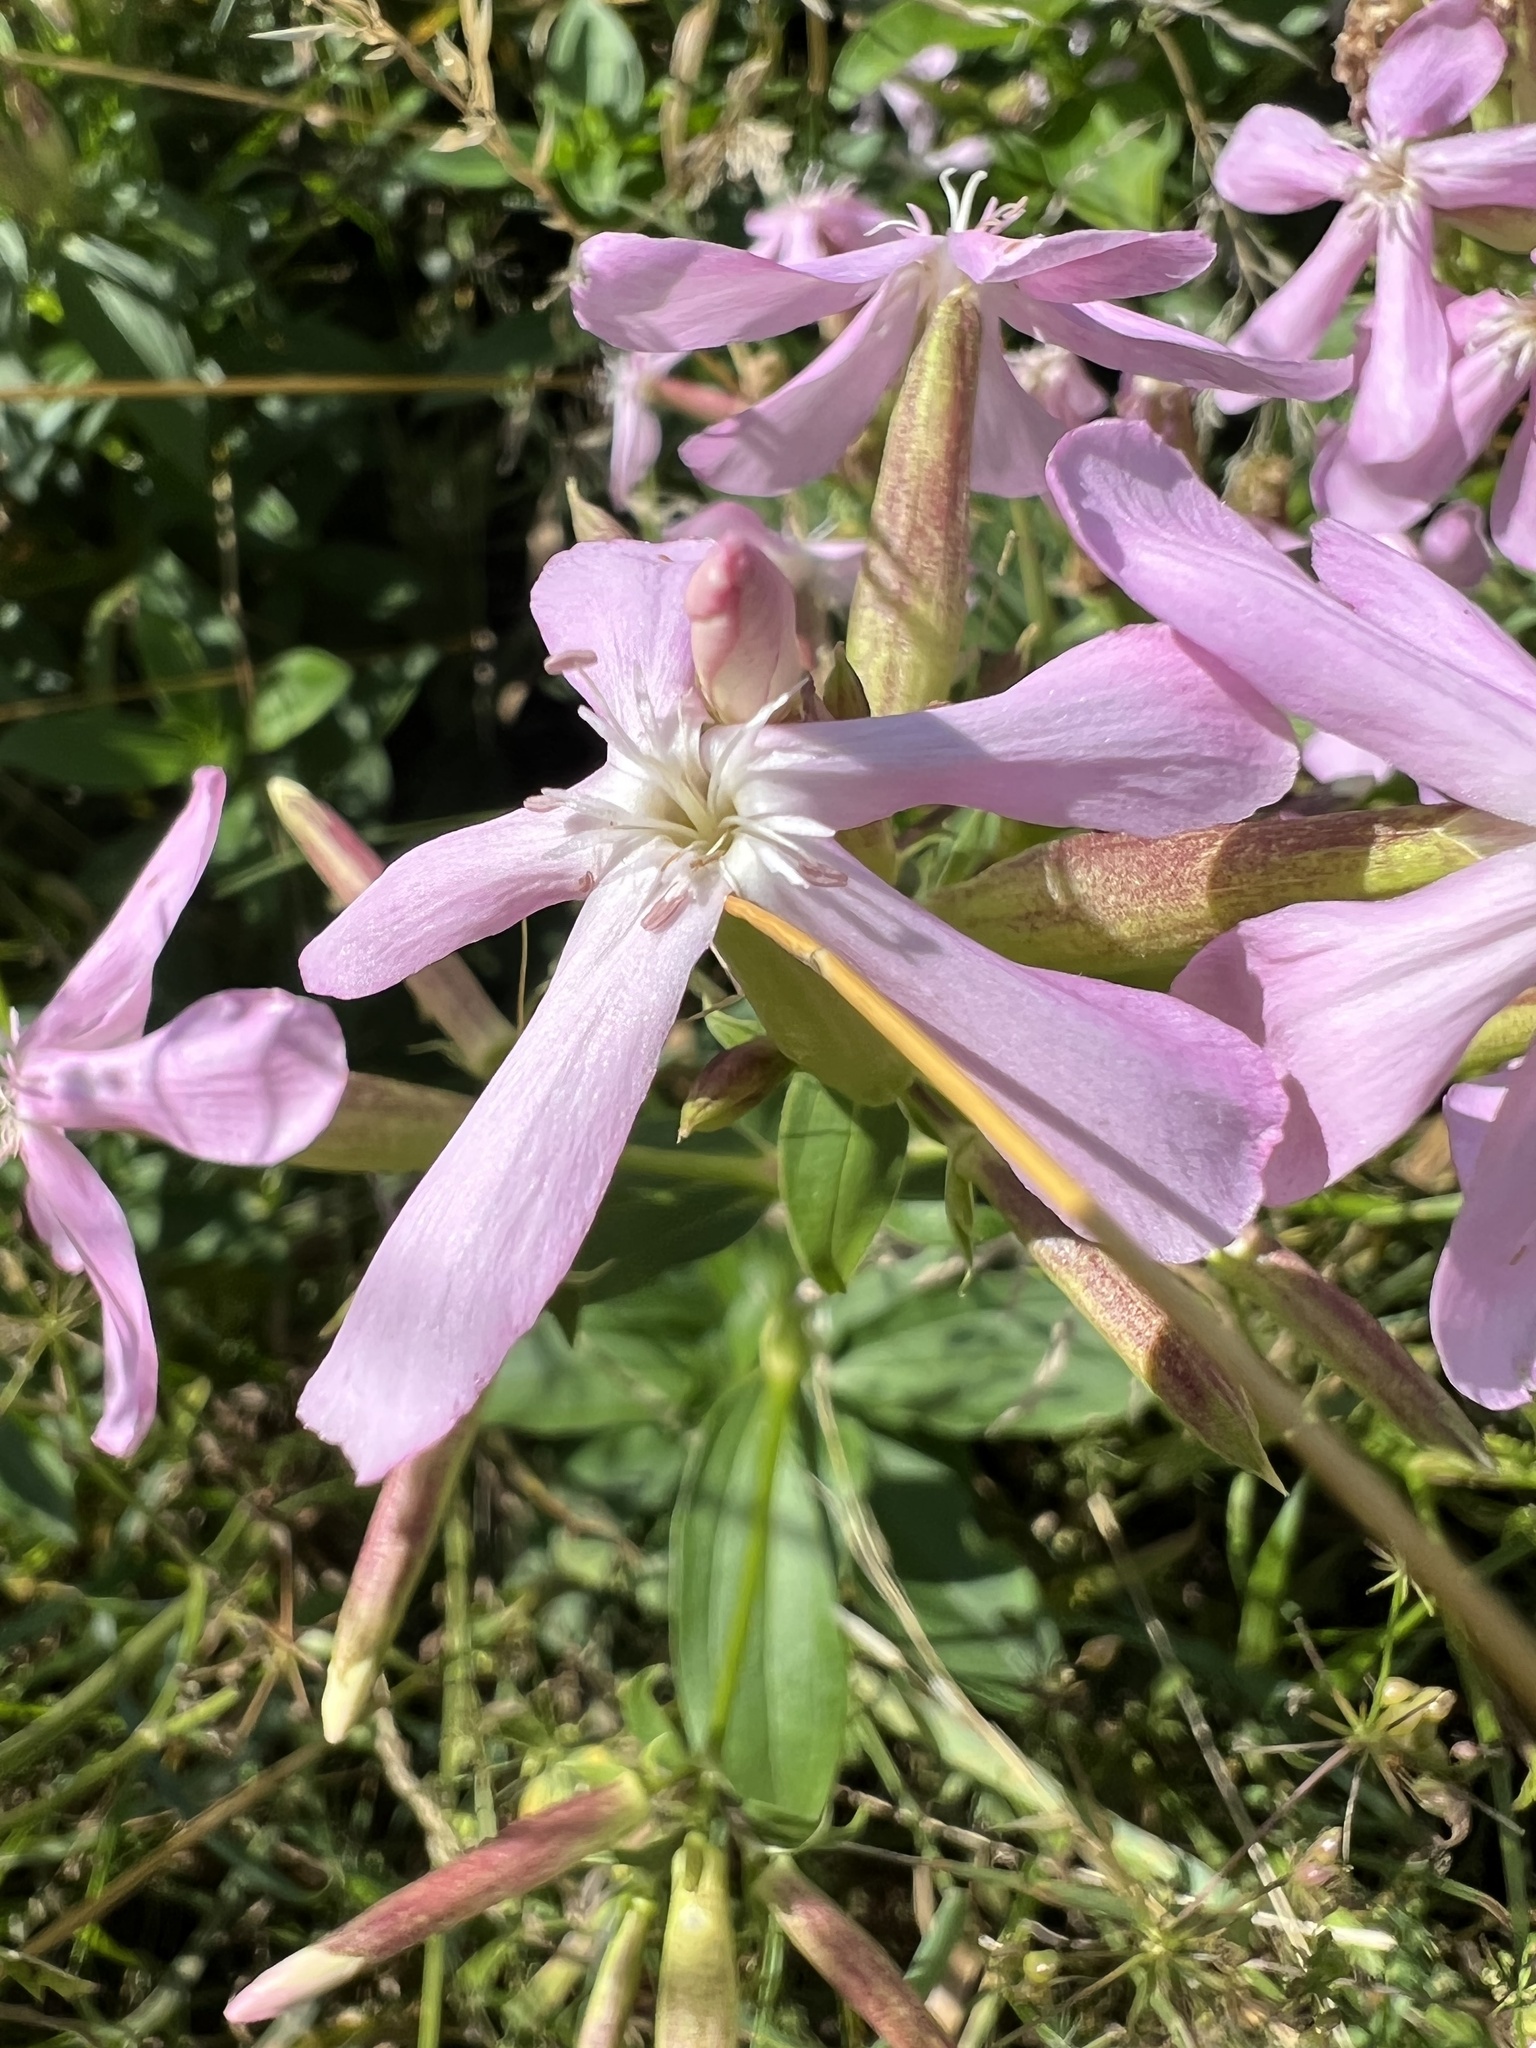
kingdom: Plantae
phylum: Tracheophyta
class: Magnoliopsida
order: Caryophyllales
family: Caryophyllaceae
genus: Saponaria
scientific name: Saponaria officinalis
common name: Soapwort
